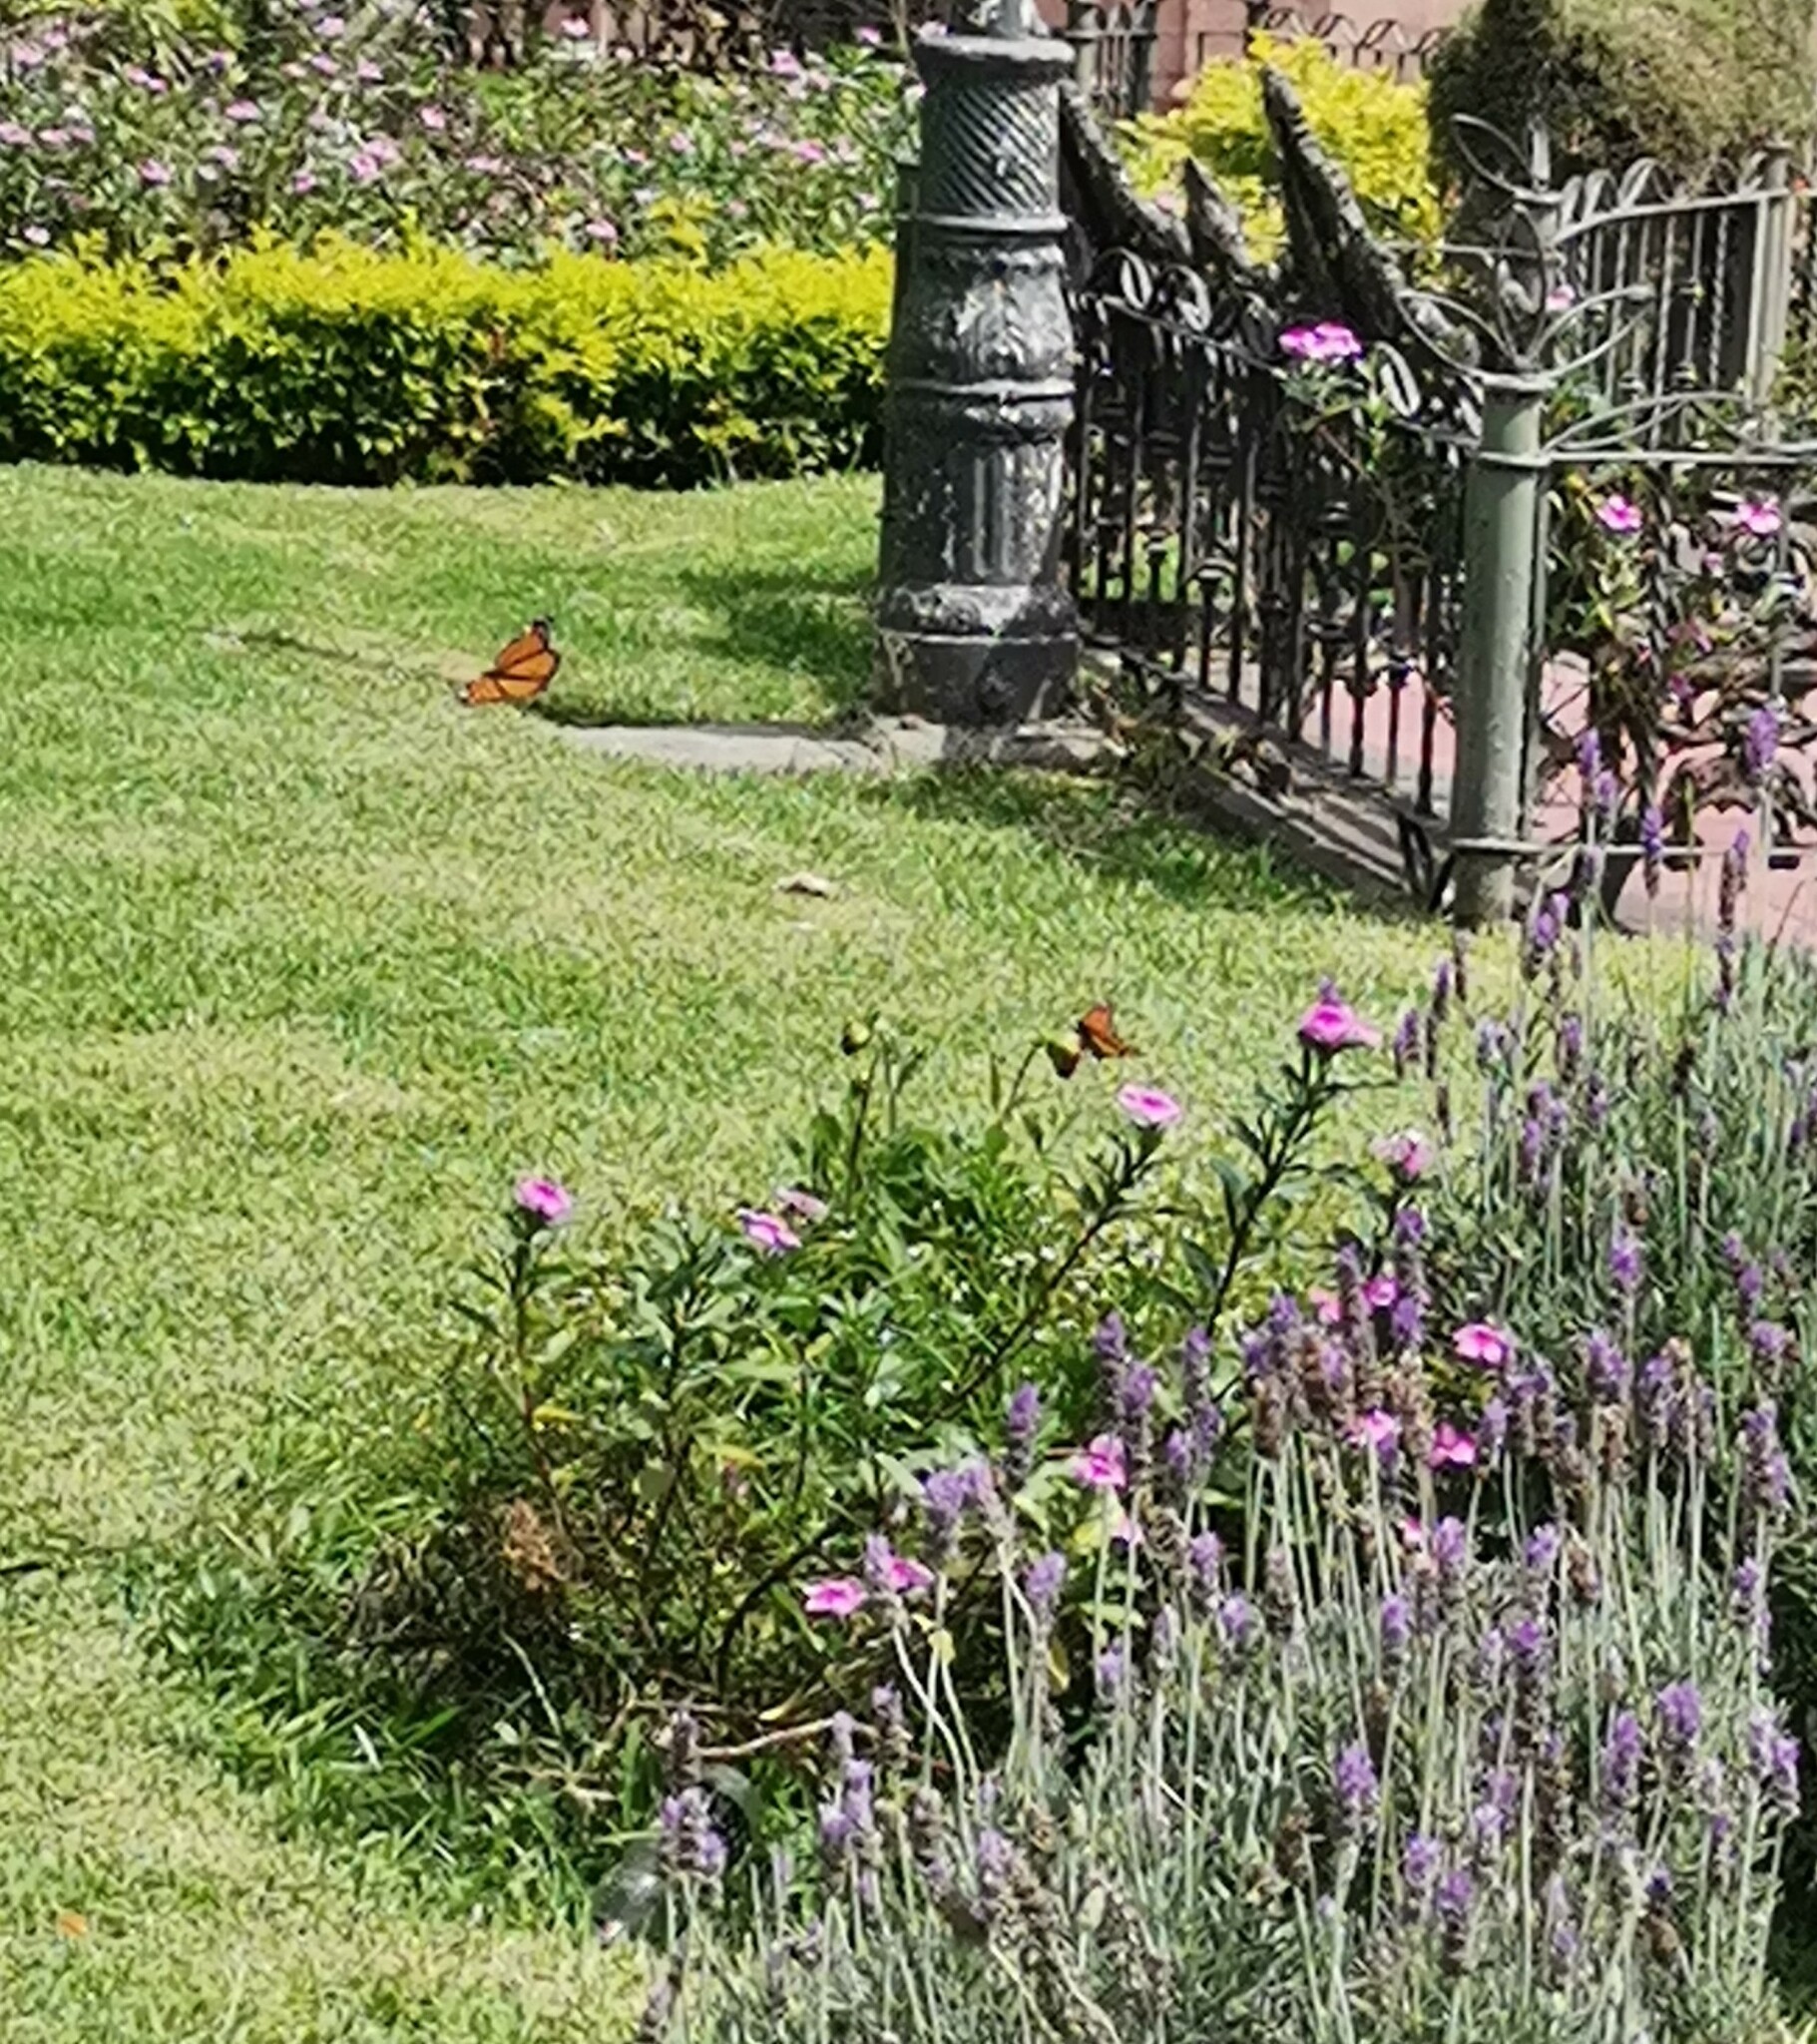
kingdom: Animalia
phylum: Arthropoda
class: Insecta
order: Lepidoptera
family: Nymphalidae
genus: Danaus
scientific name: Danaus plexippus
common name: Monarch
